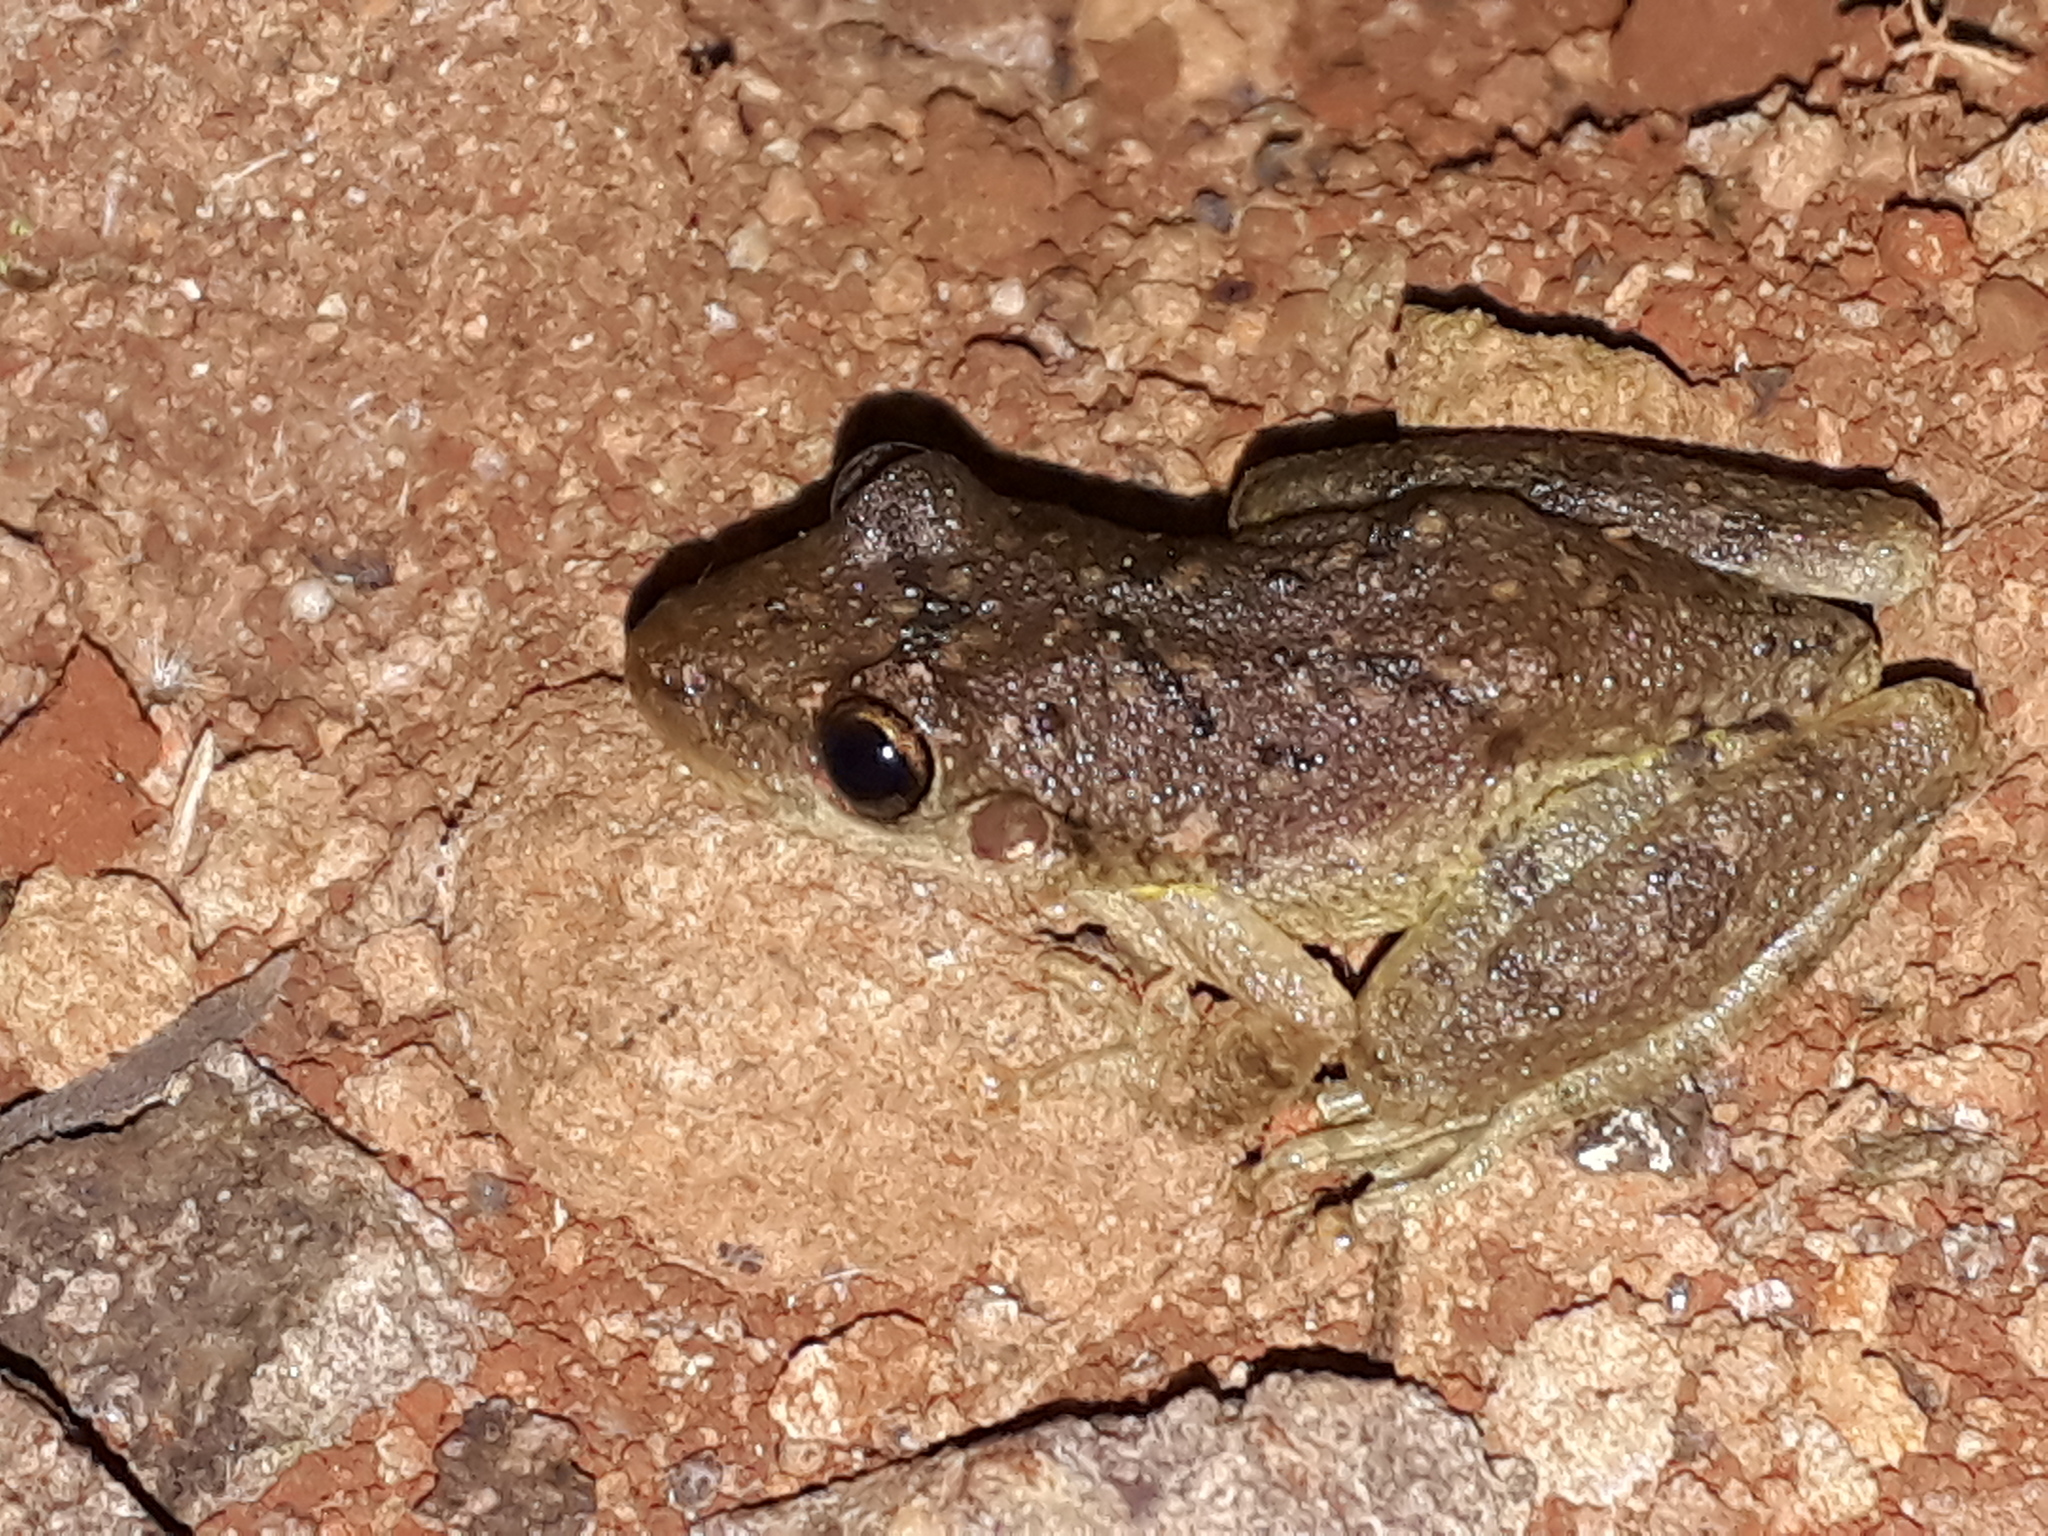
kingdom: Animalia
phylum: Chordata
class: Amphibia
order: Anura
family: Hylidae
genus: Scinax
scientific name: Scinax fuscovarius
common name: Fuscous-blotched treefrog
